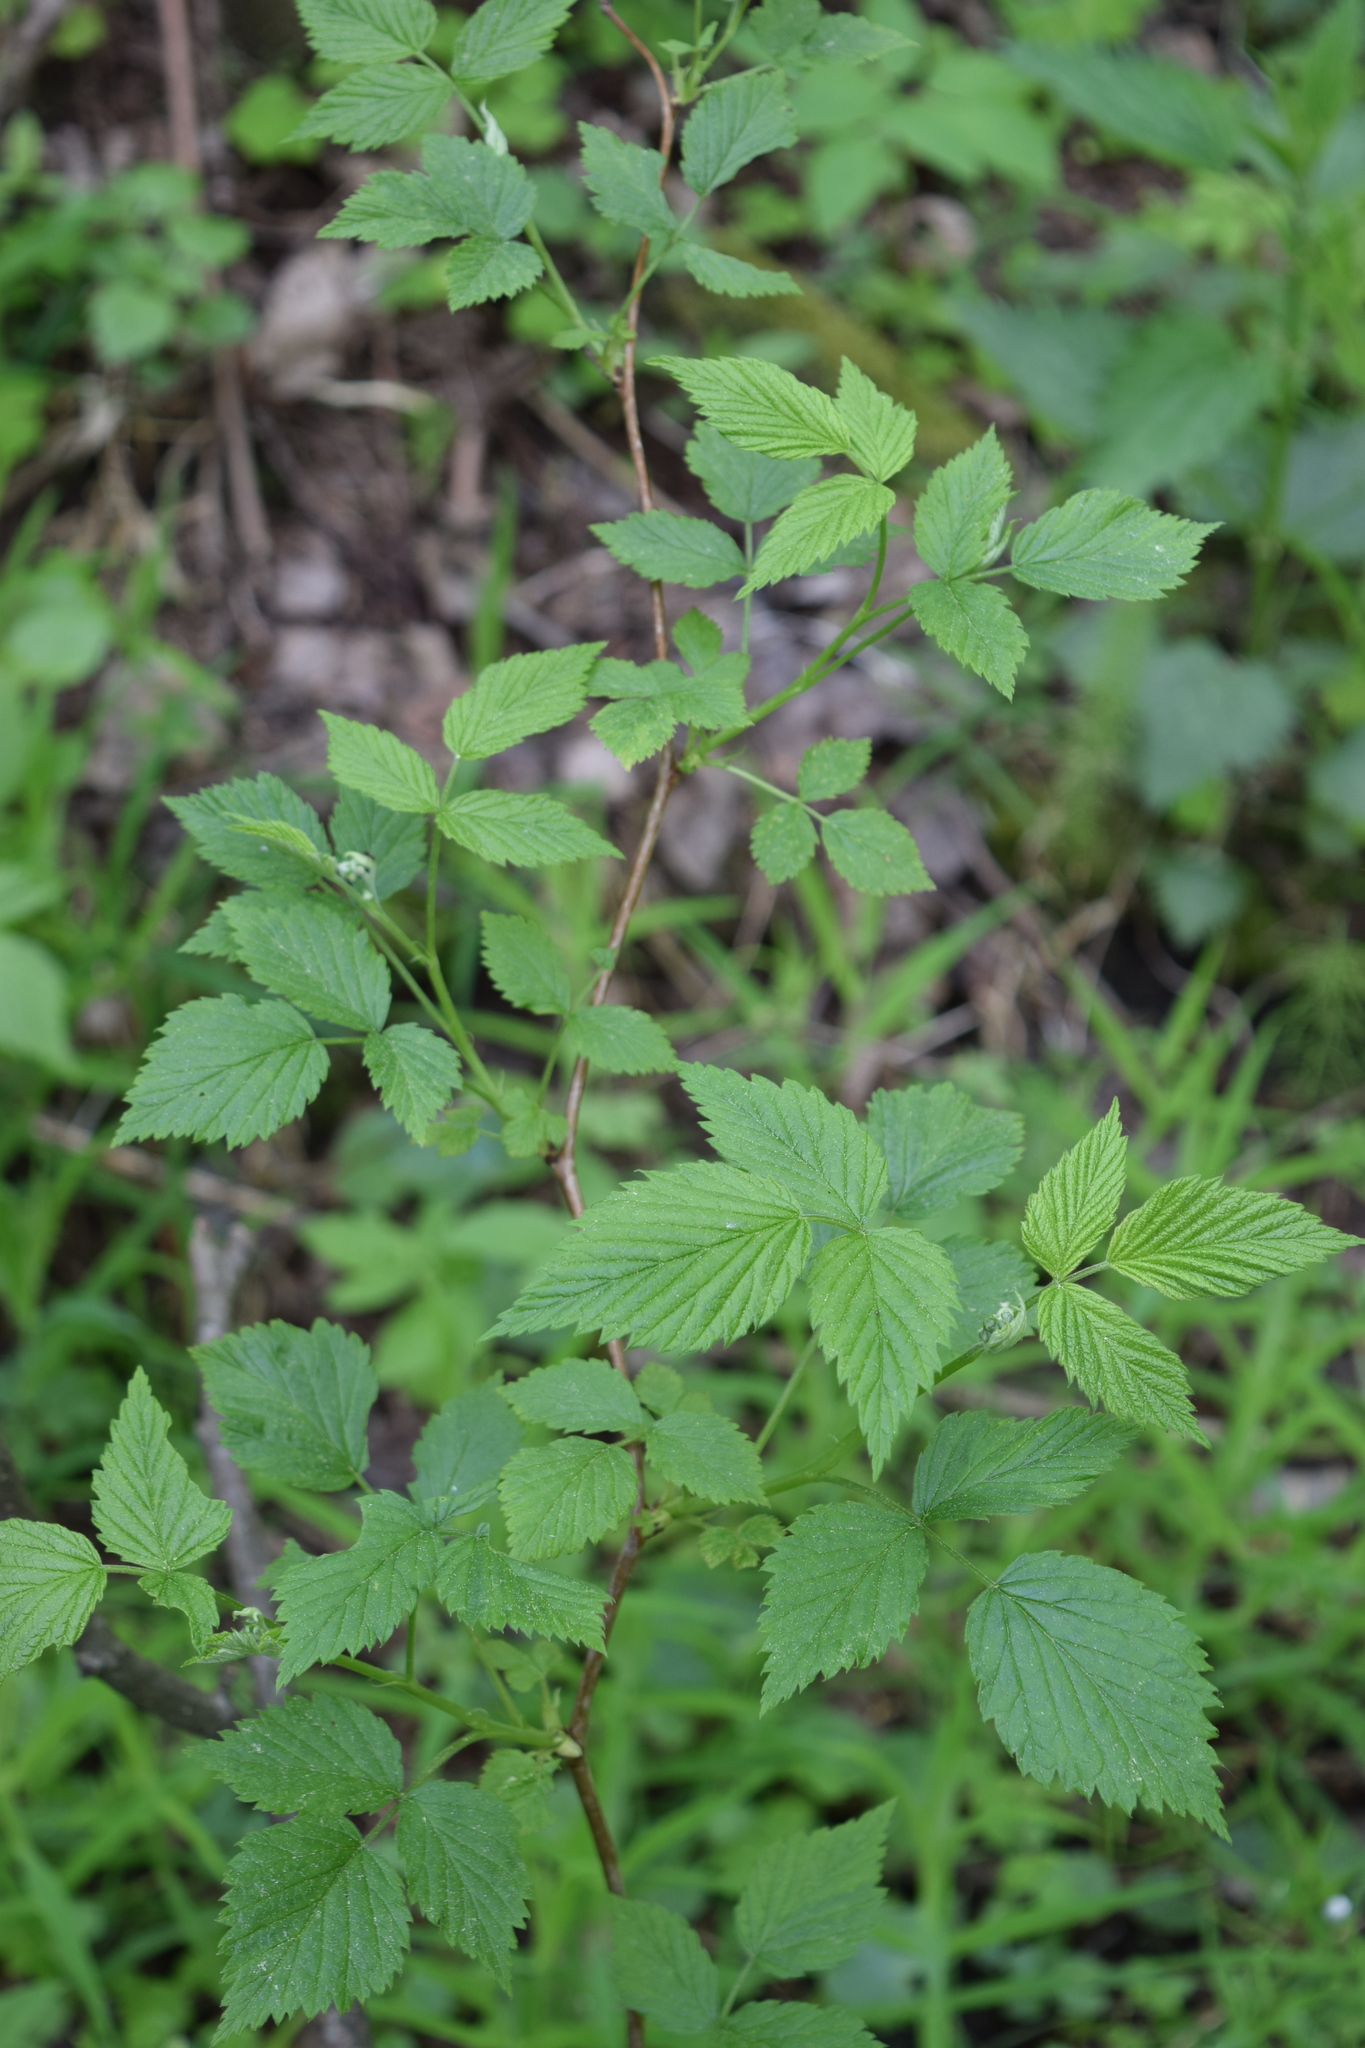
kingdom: Plantae
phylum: Tracheophyta
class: Magnoliopsida
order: Rosales
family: Rosaceae
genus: Rubus
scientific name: Rubus idaeus
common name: Raspberry
